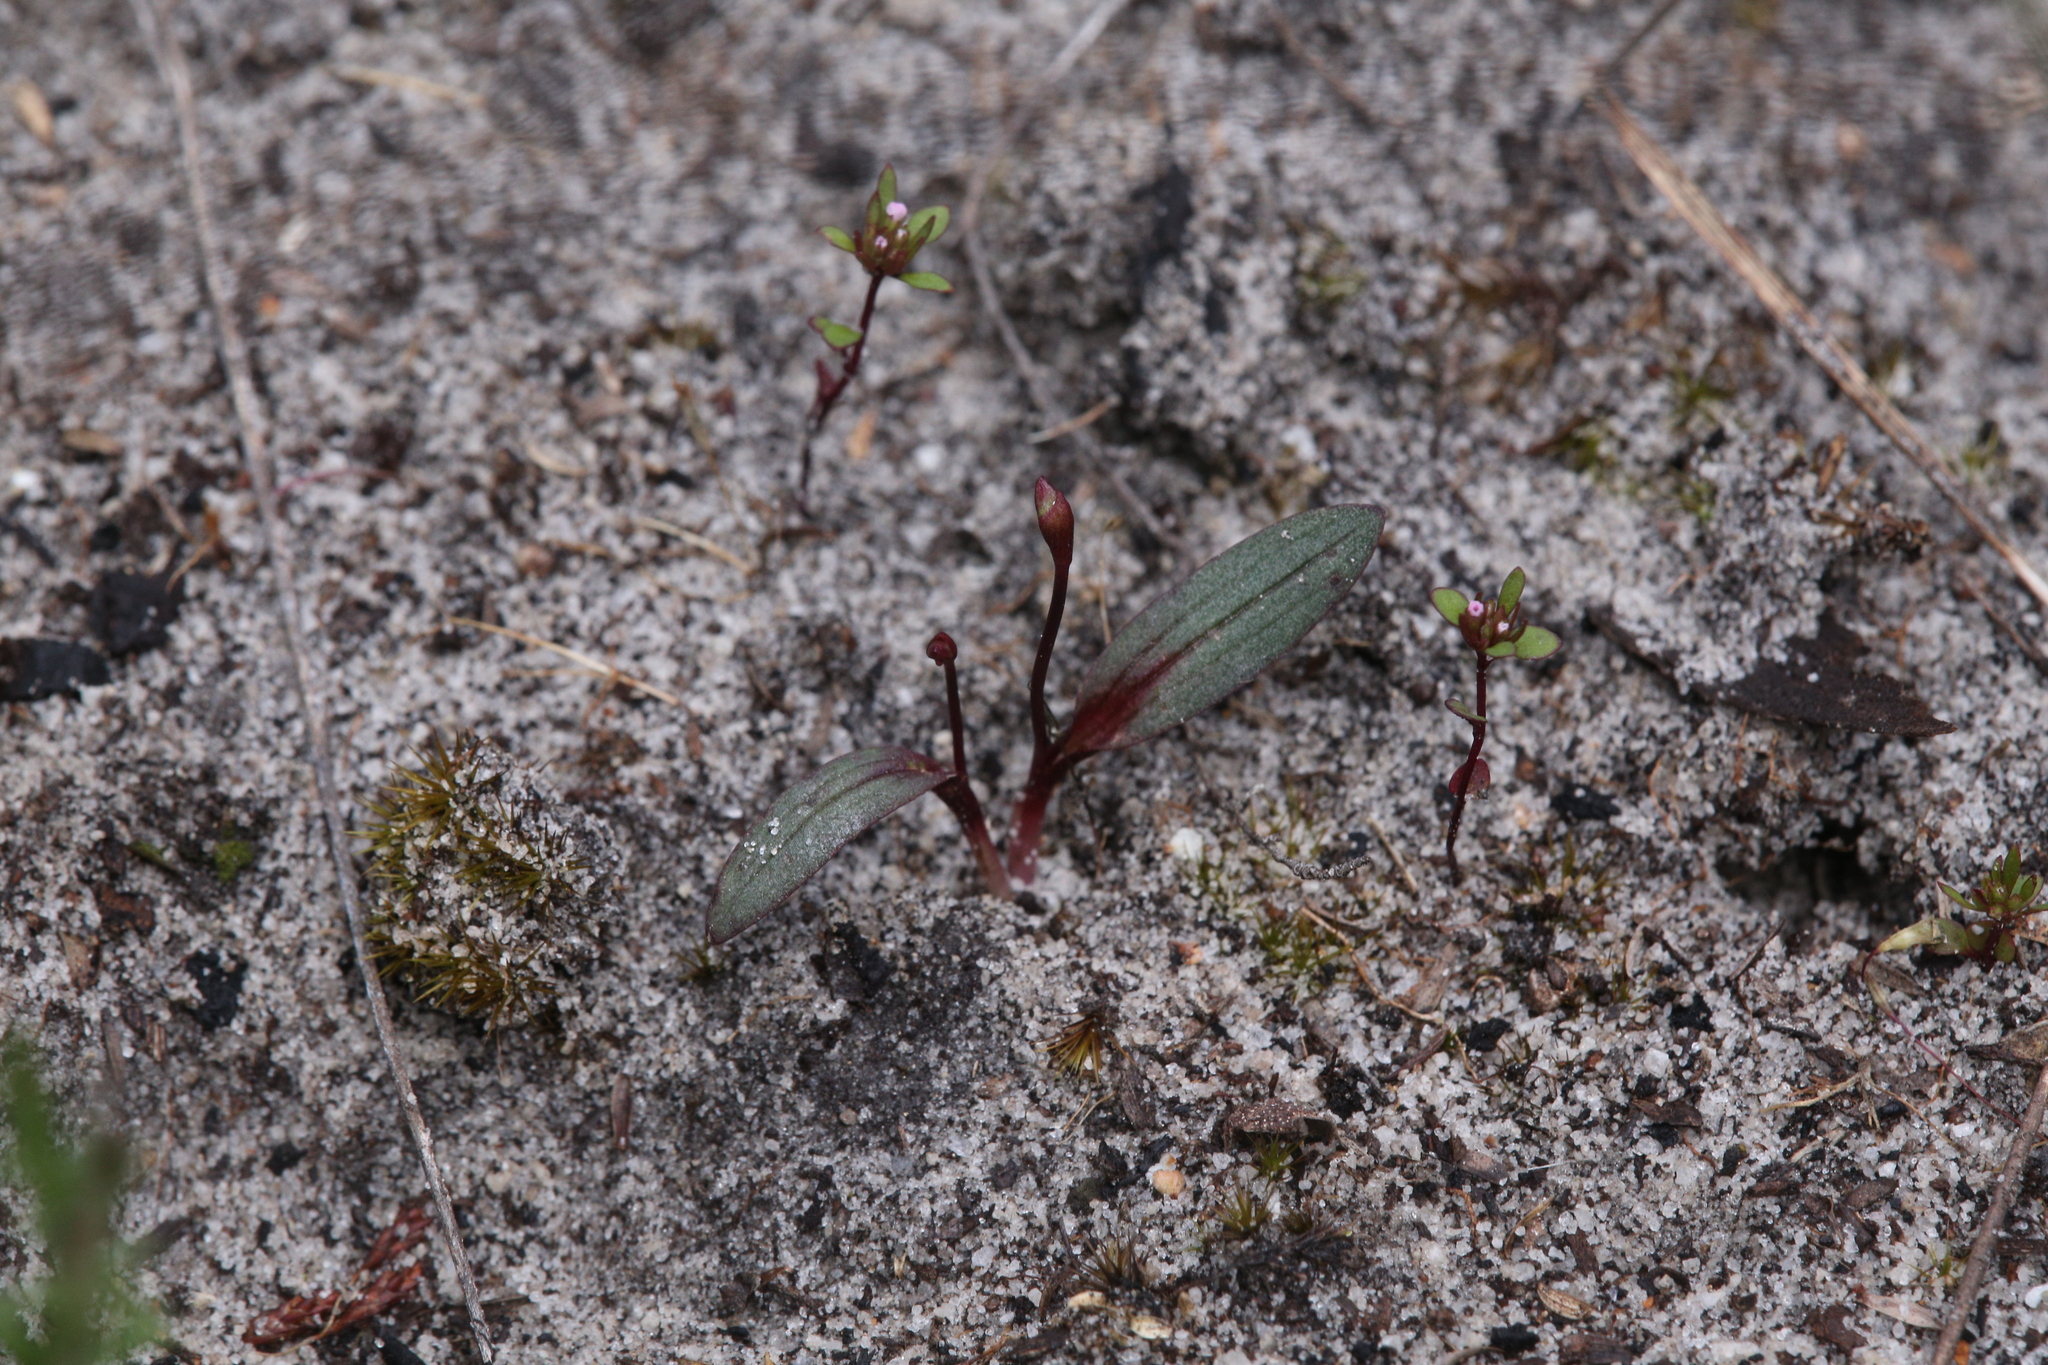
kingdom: Plantae
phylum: Tracheophyta
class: Liliopsida
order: Asparagales
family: Orchidaceae
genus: Caleana
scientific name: Caleana nigrita
